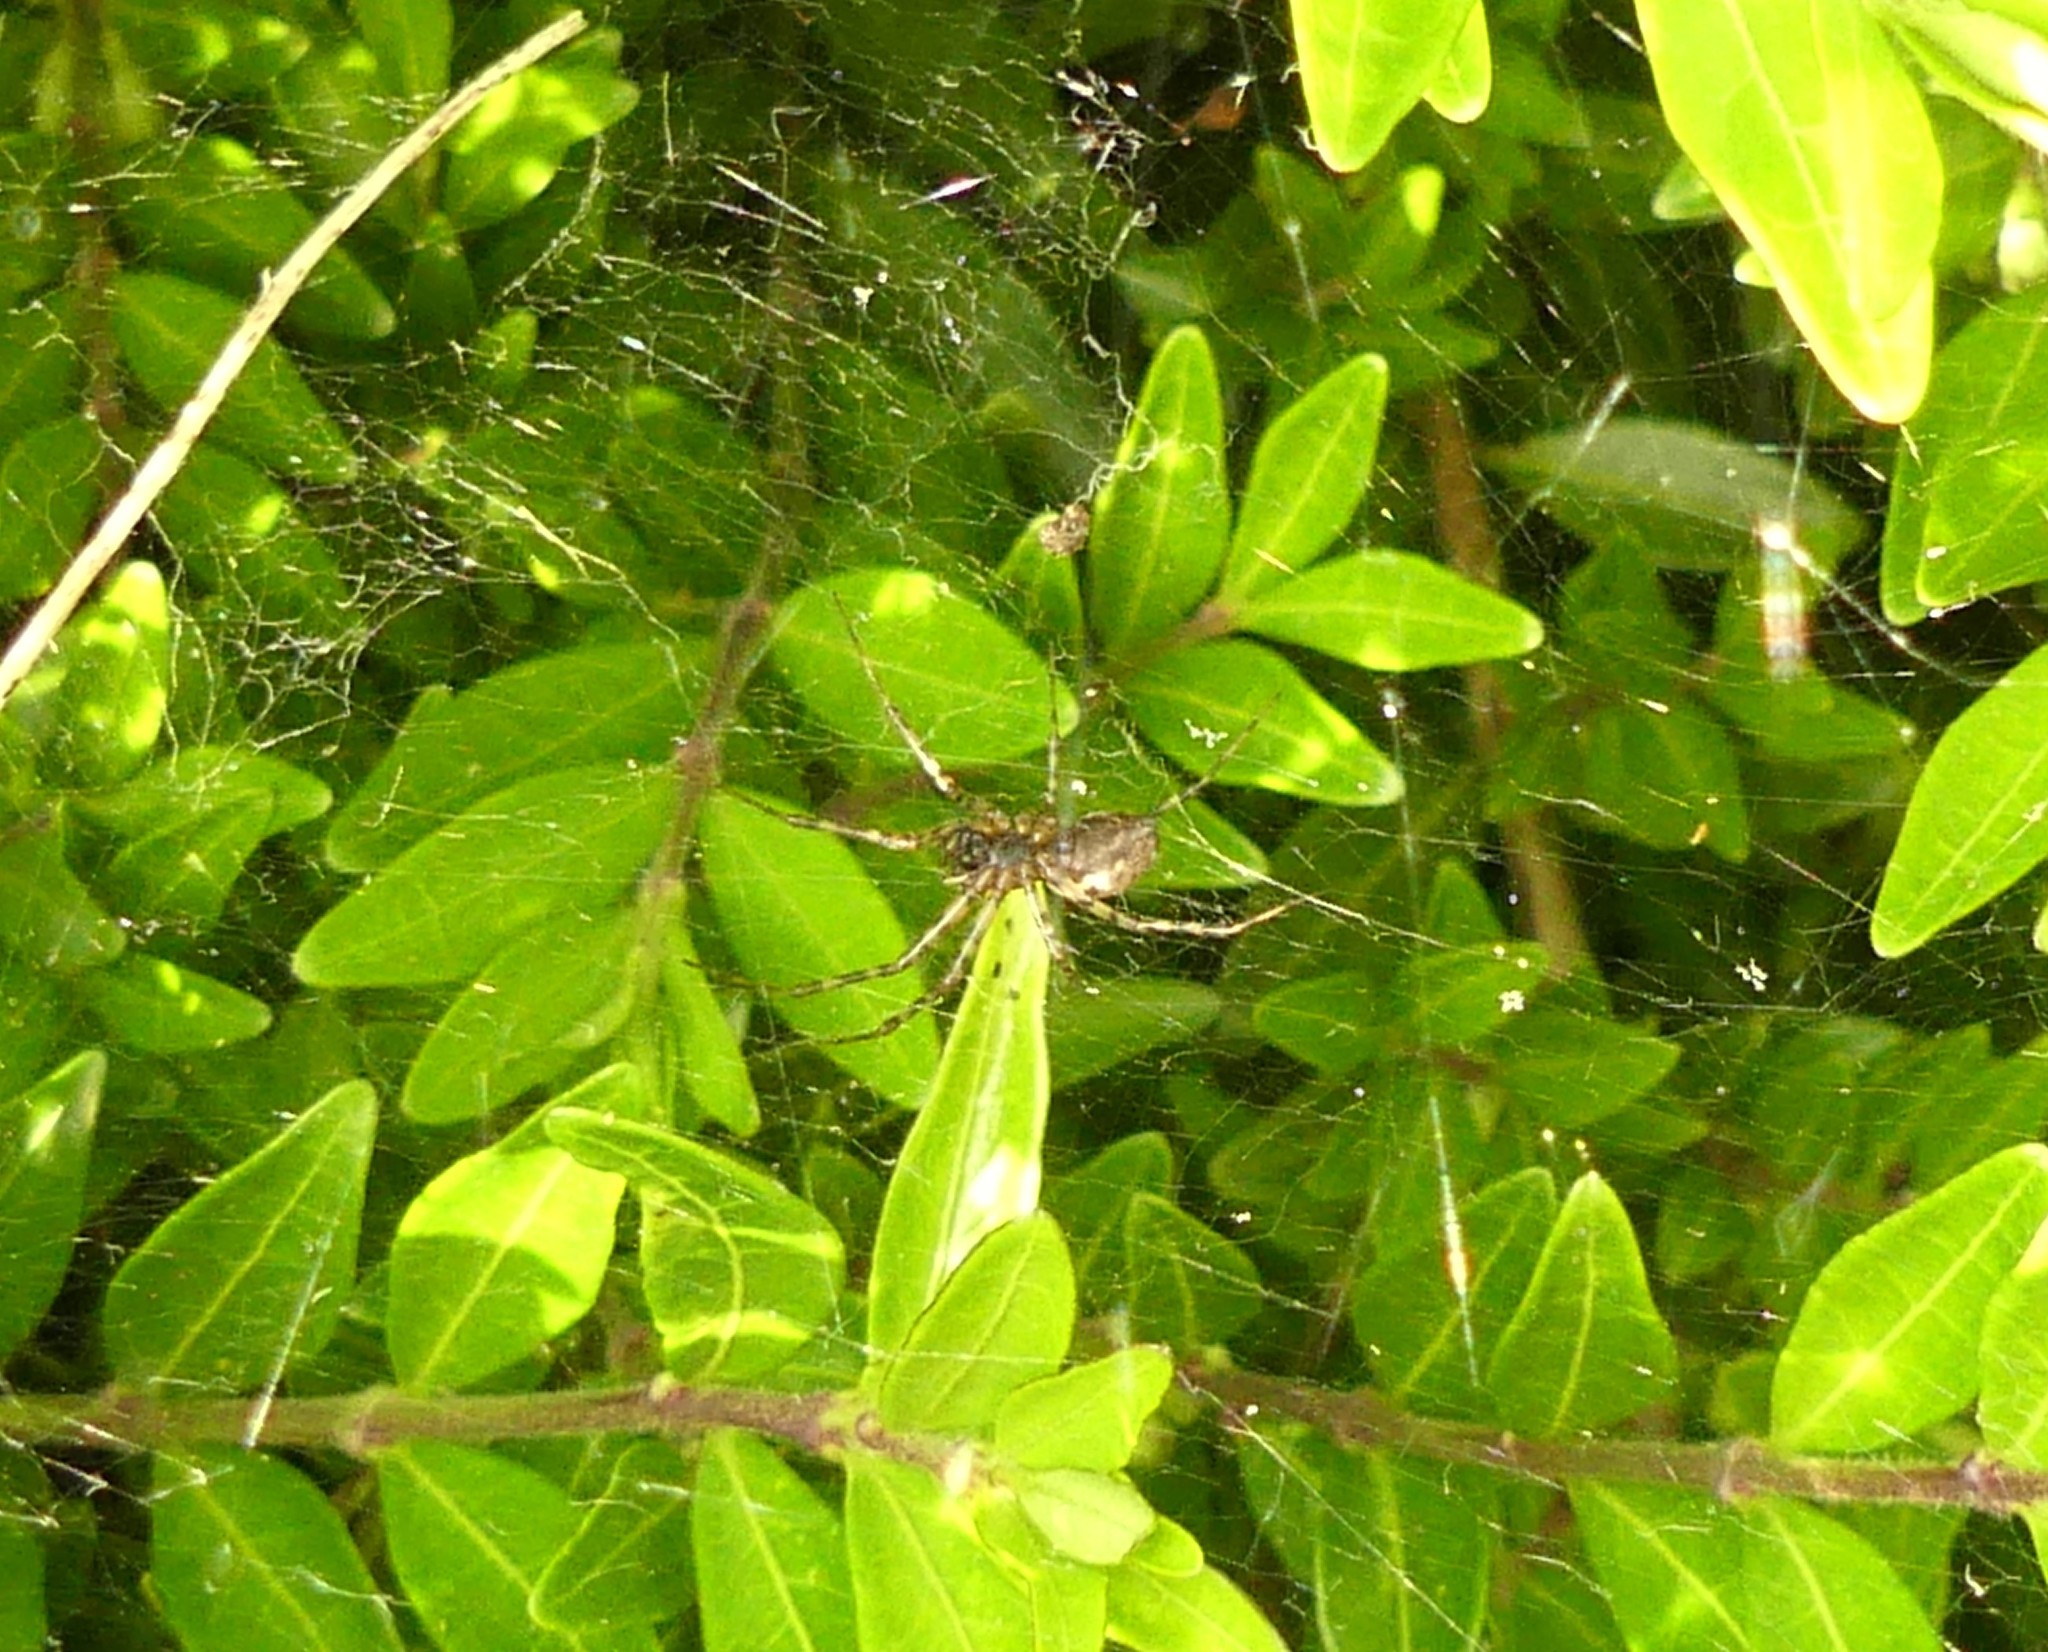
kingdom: Animalia
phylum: Arthropoda
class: Arachnida
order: Araneae
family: Linyphiidae
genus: Neriene
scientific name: Neriene montana
